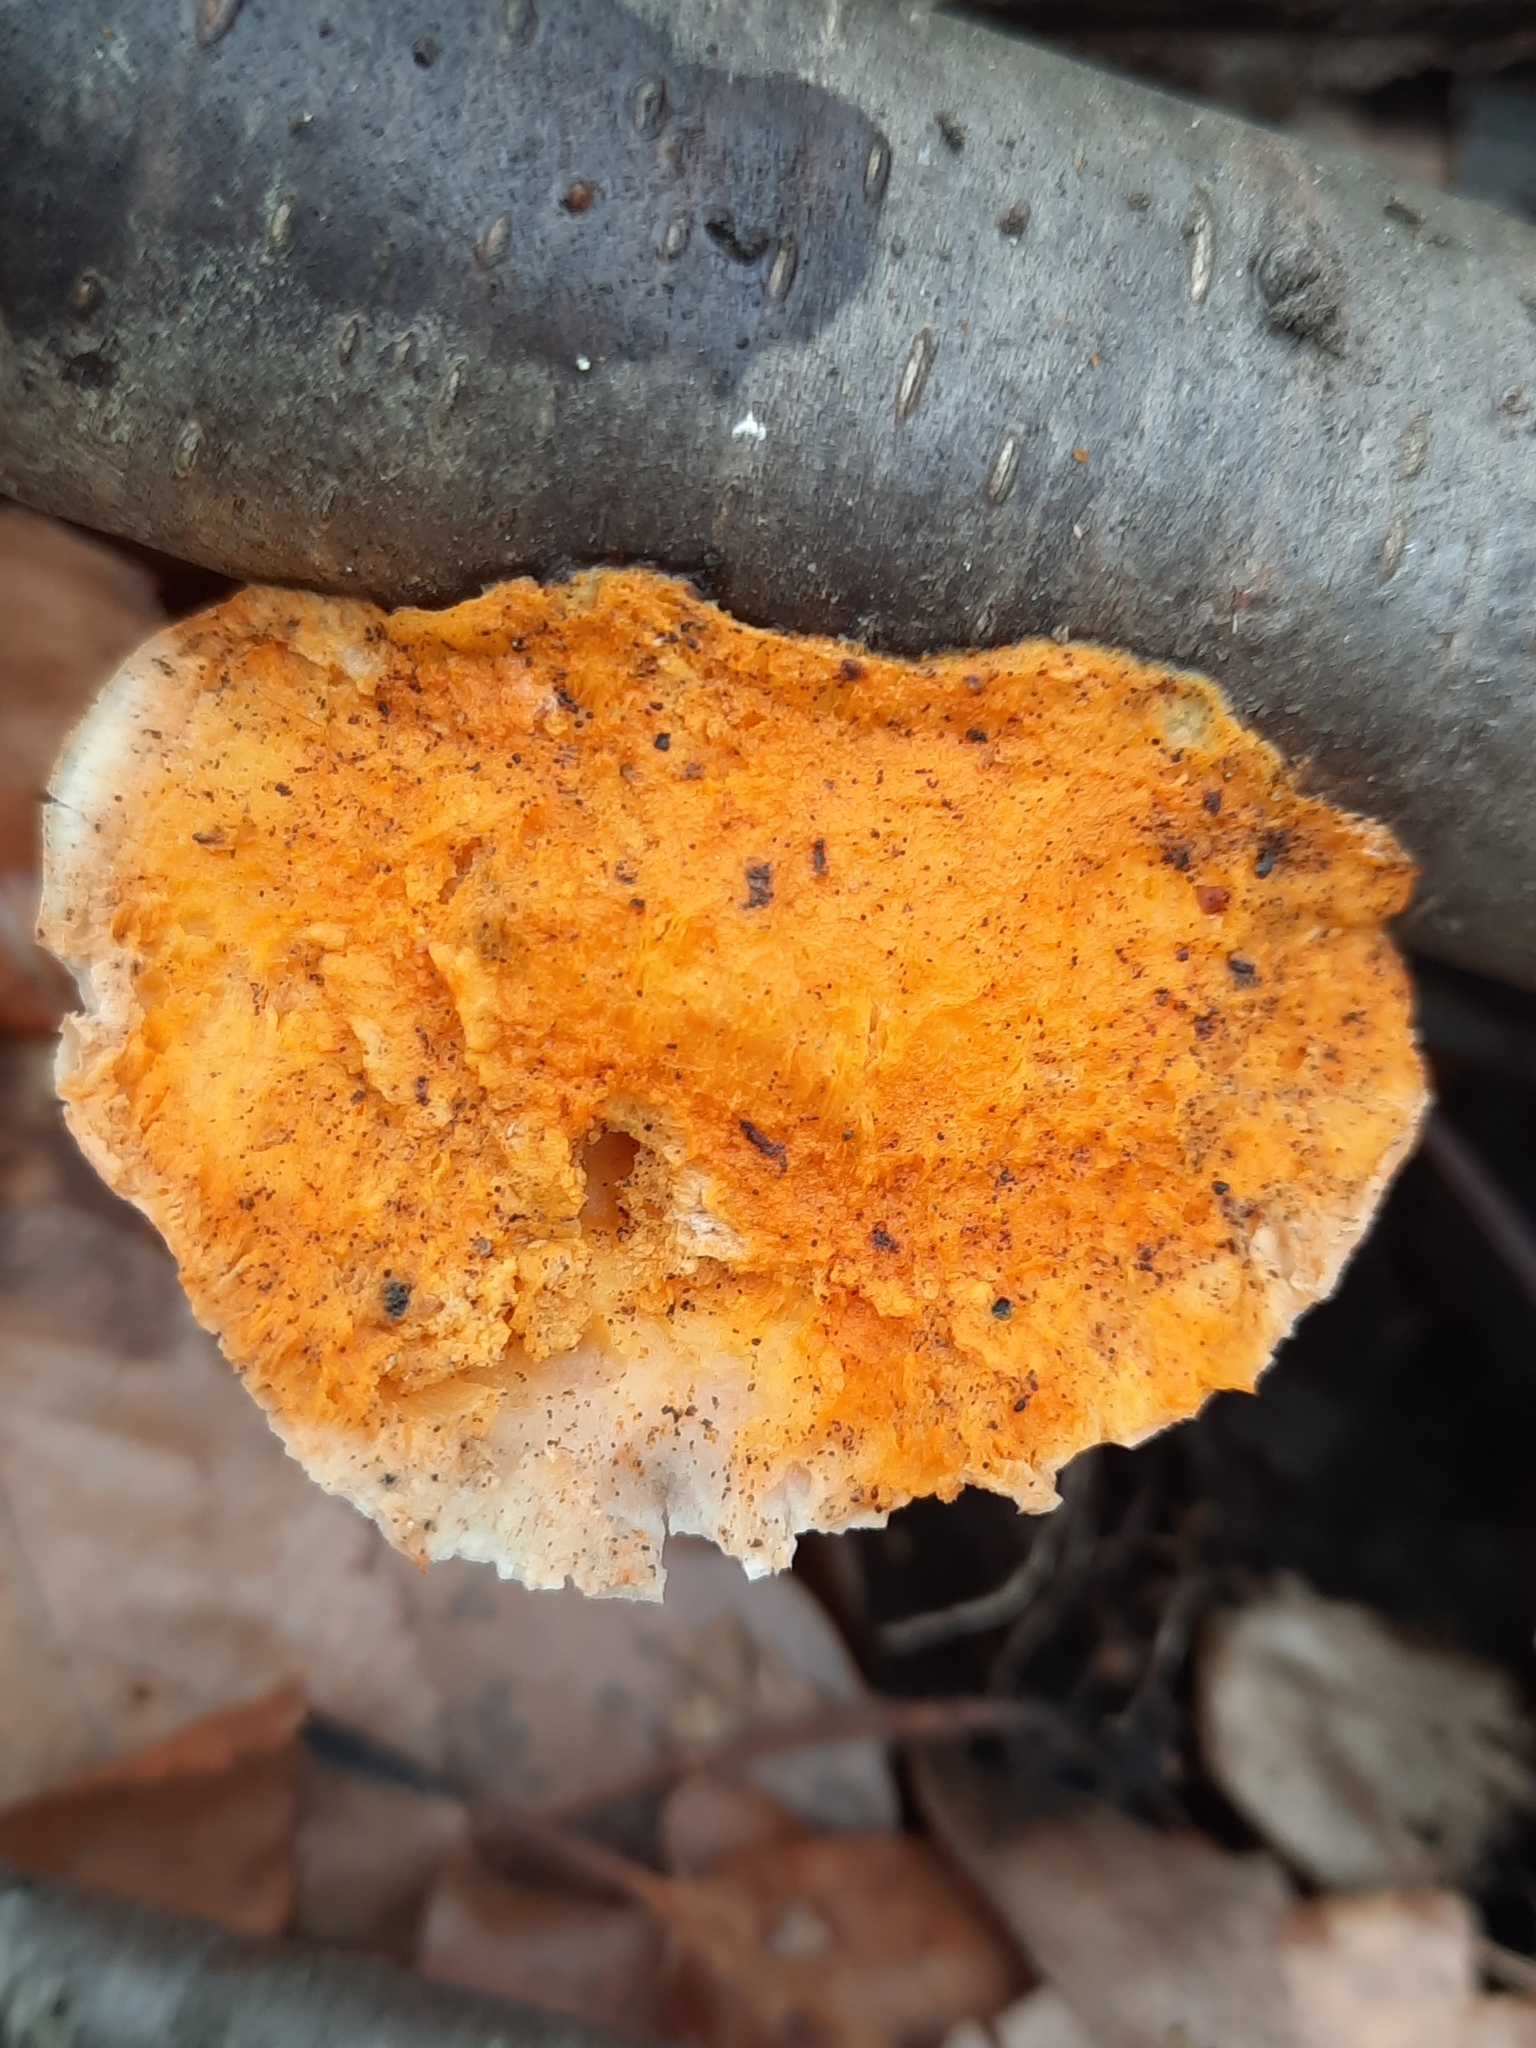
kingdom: Fungi
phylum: Basidiomycota
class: Agaricomycetes
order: Polyporales
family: Incrustoporiaceae
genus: Tyromyces
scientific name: Tyromyces chioneus
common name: White cheese polypore
